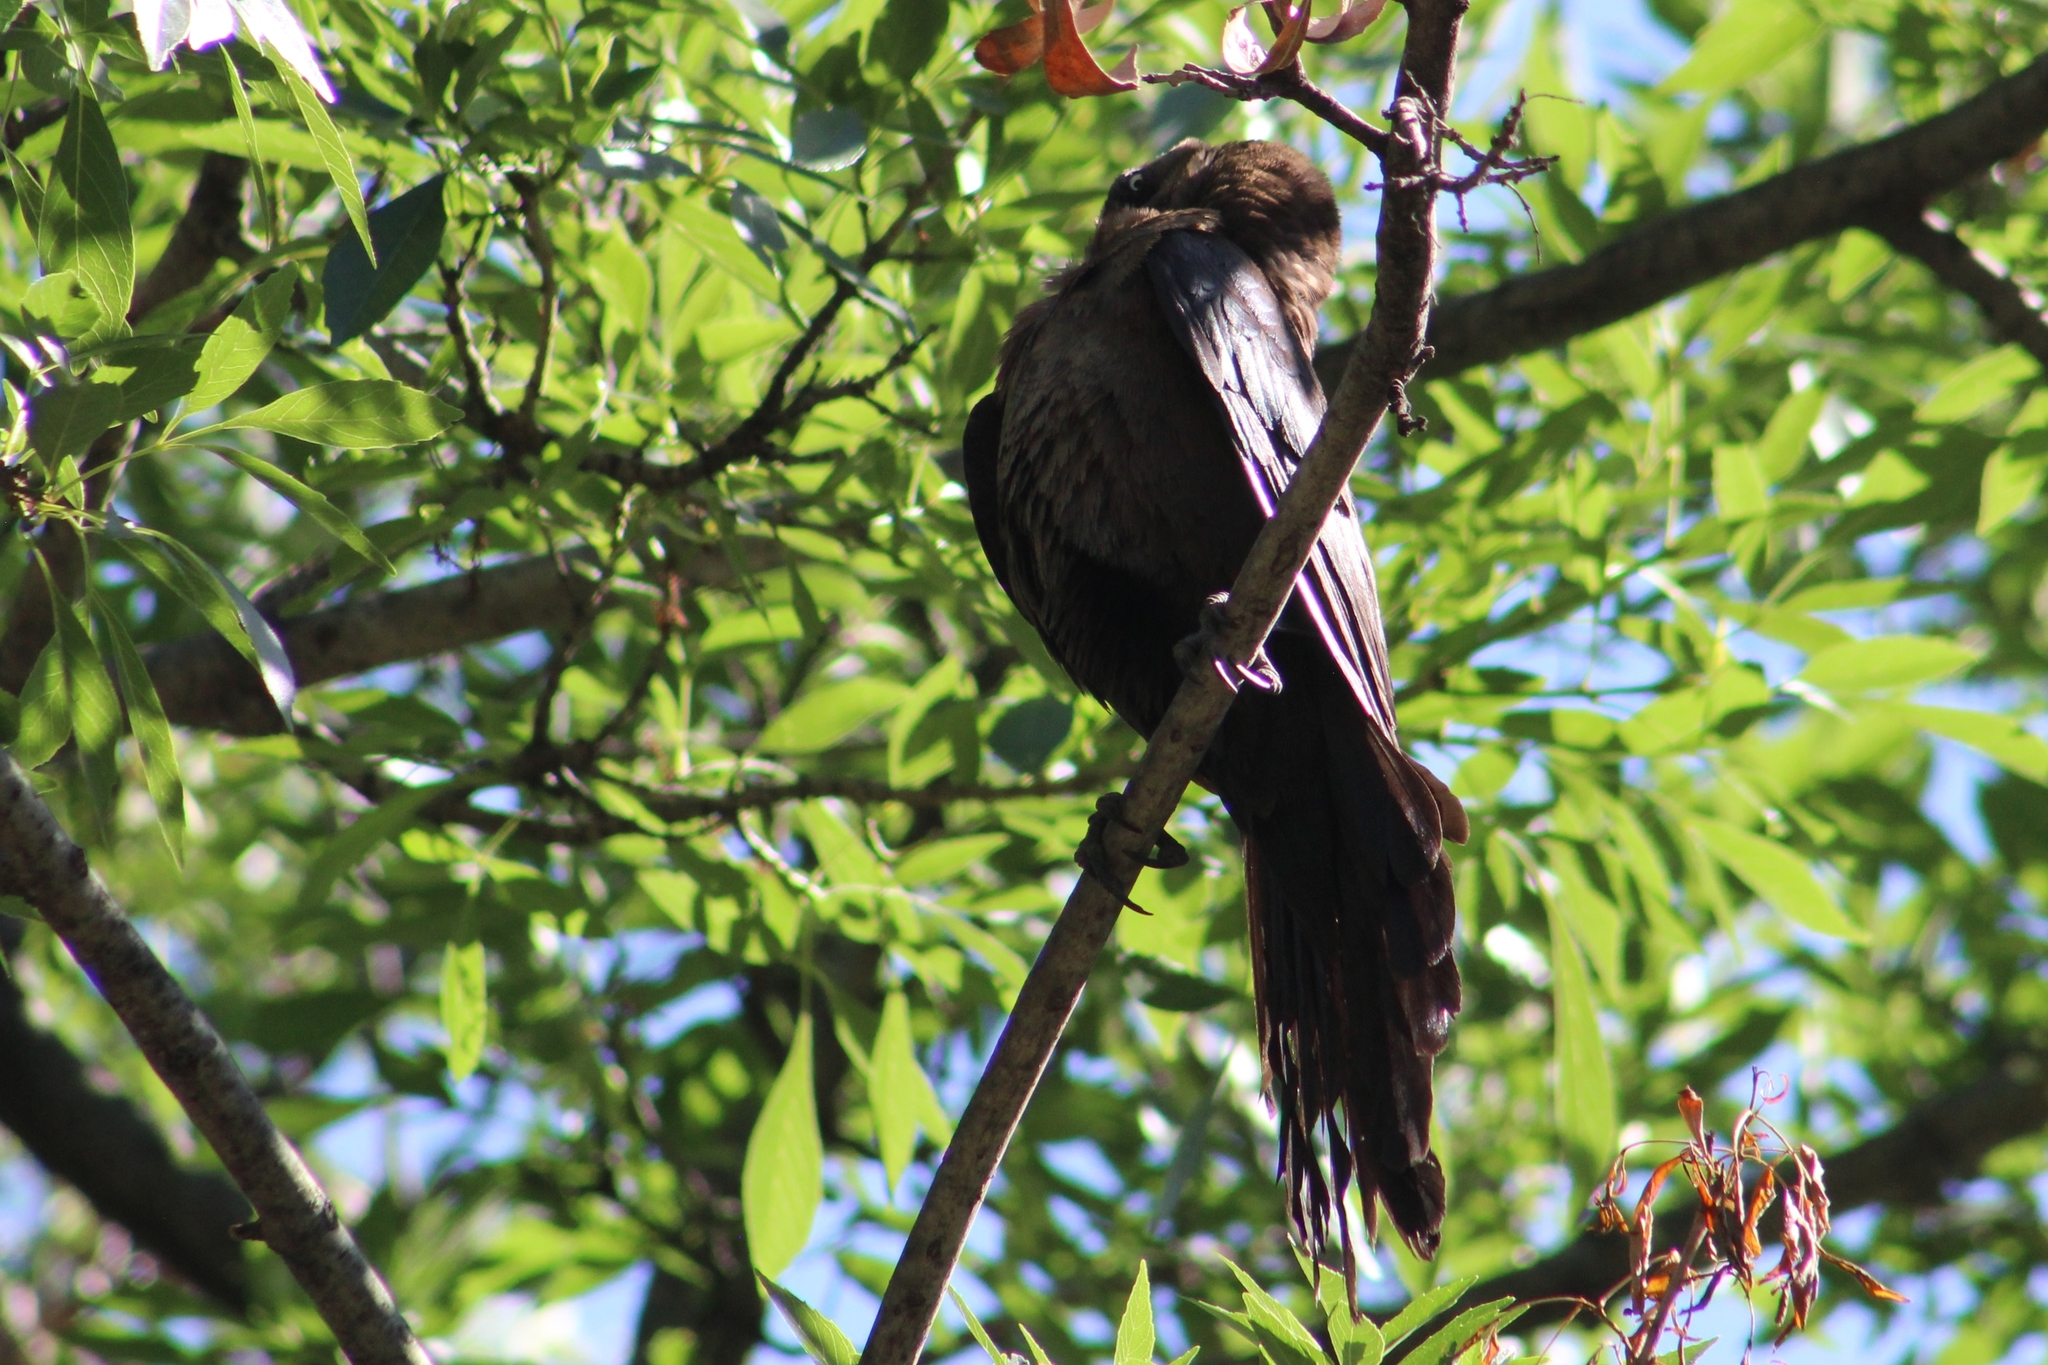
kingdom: Animalia
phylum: Chordata
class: Aves
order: Passeriformes
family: Icteridae
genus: Quiscalus
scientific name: Quiscalus mexicanus
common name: Great-tailed grackle
